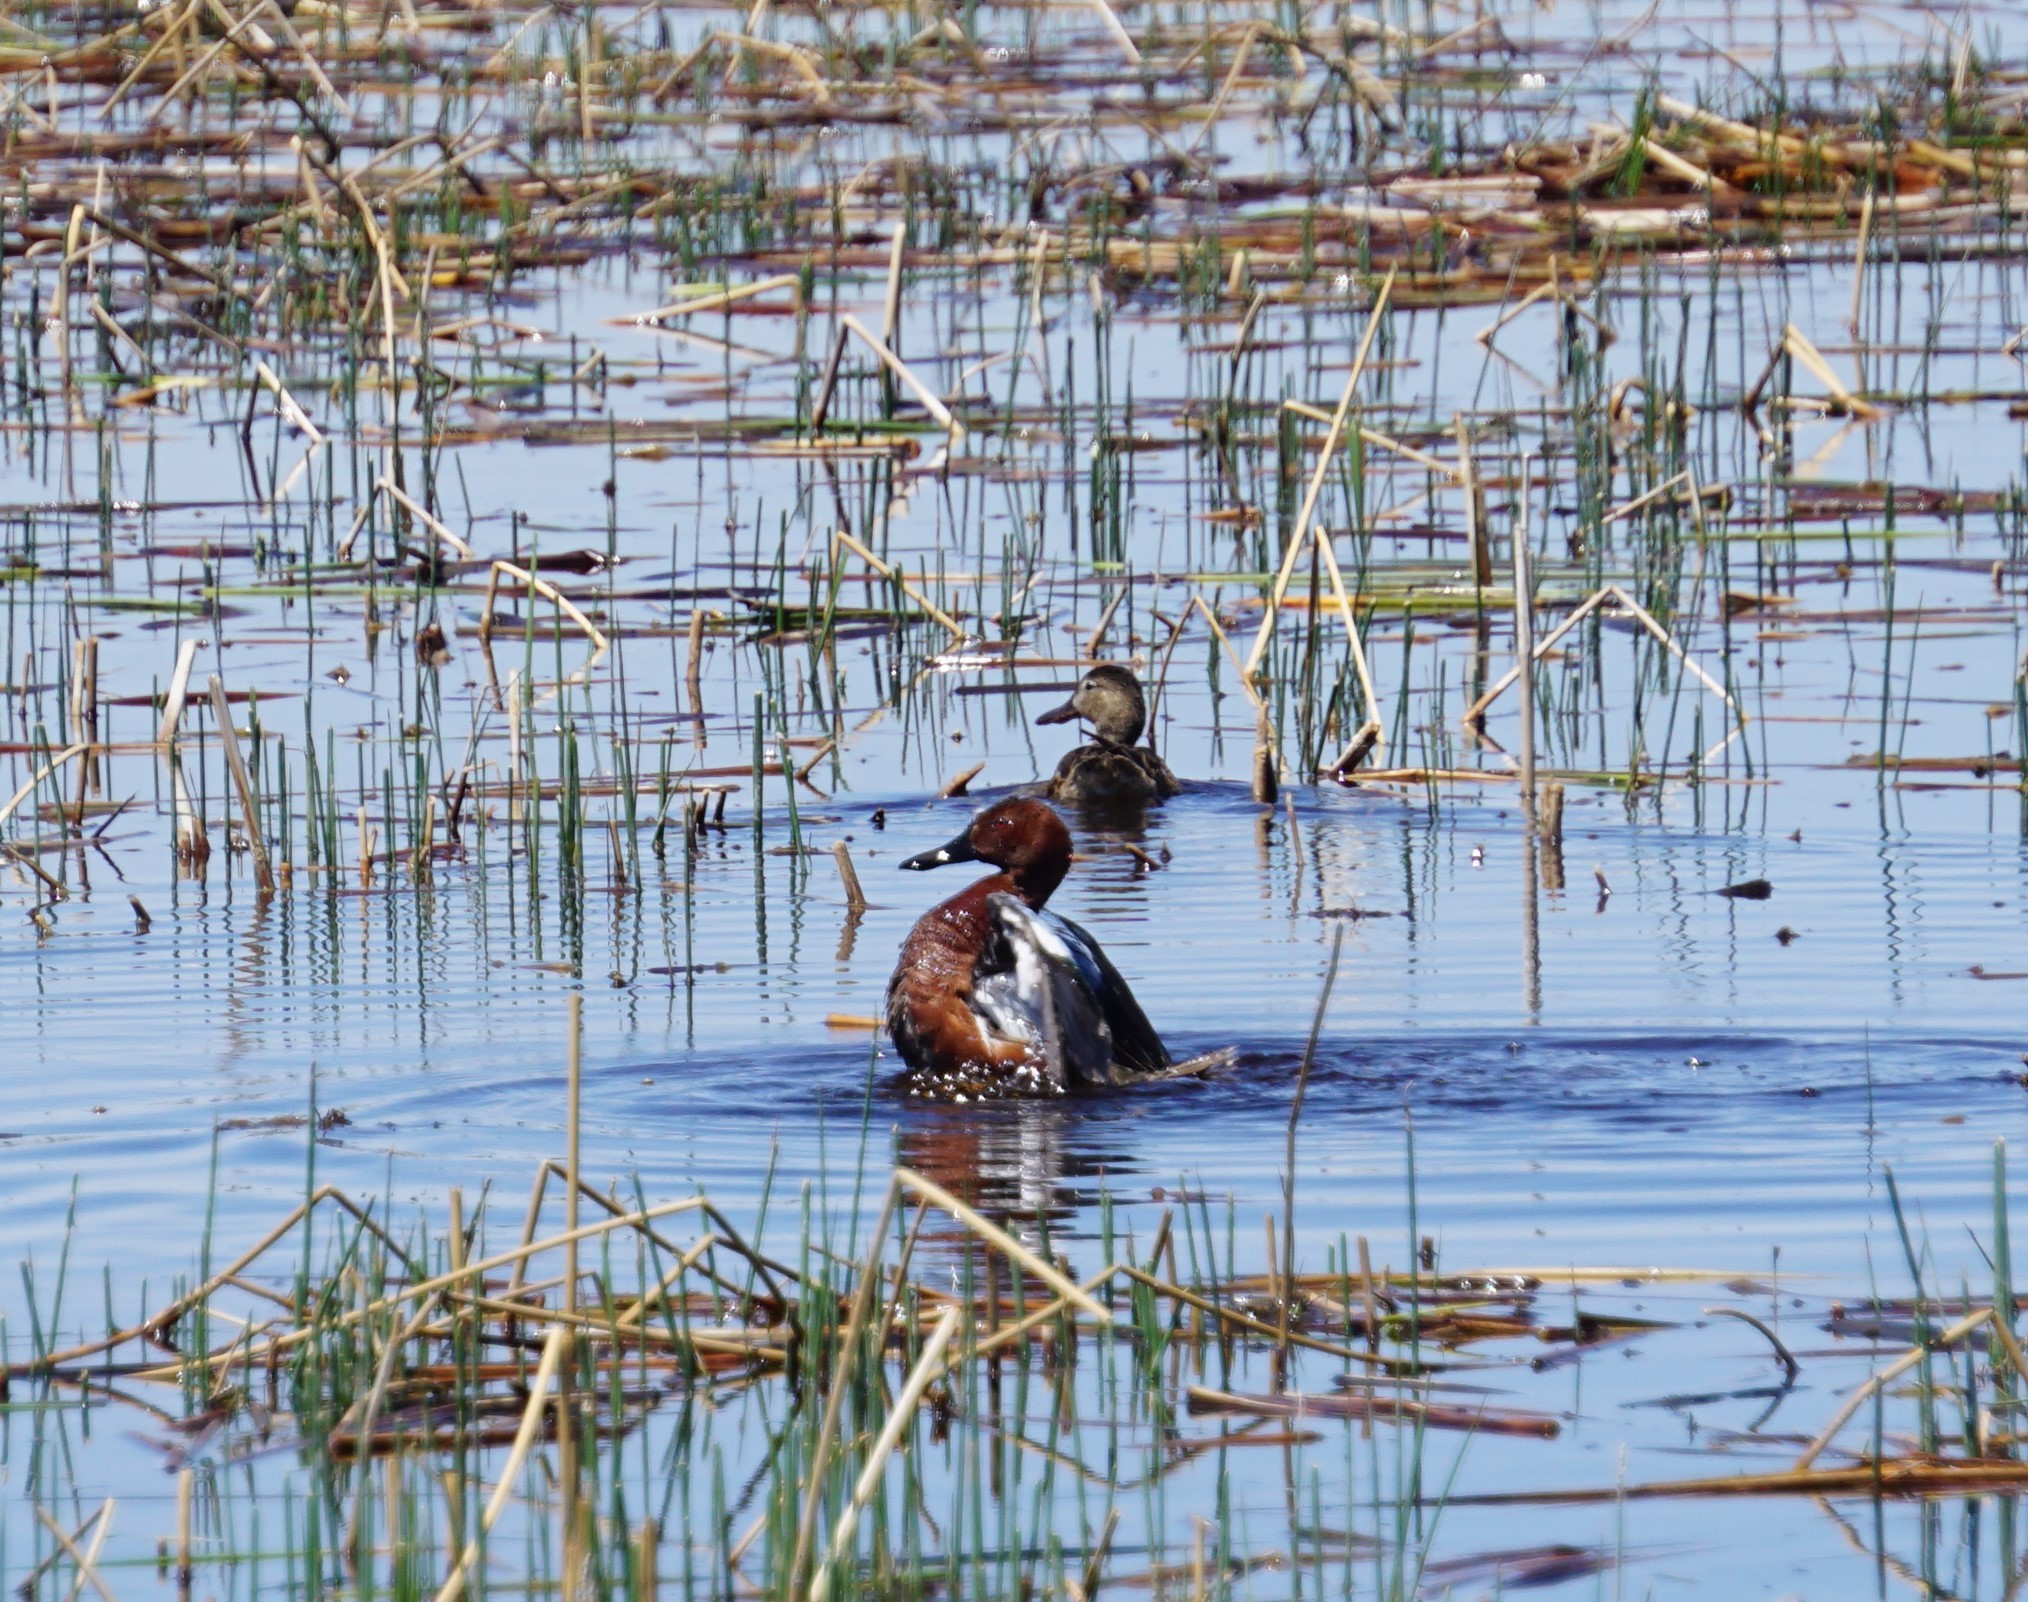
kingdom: Animalia
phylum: Chordata
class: Aves
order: Anseriformes
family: Anatidae
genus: Spatula
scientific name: Spatula cyanoptera
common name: Cinnamon teal
